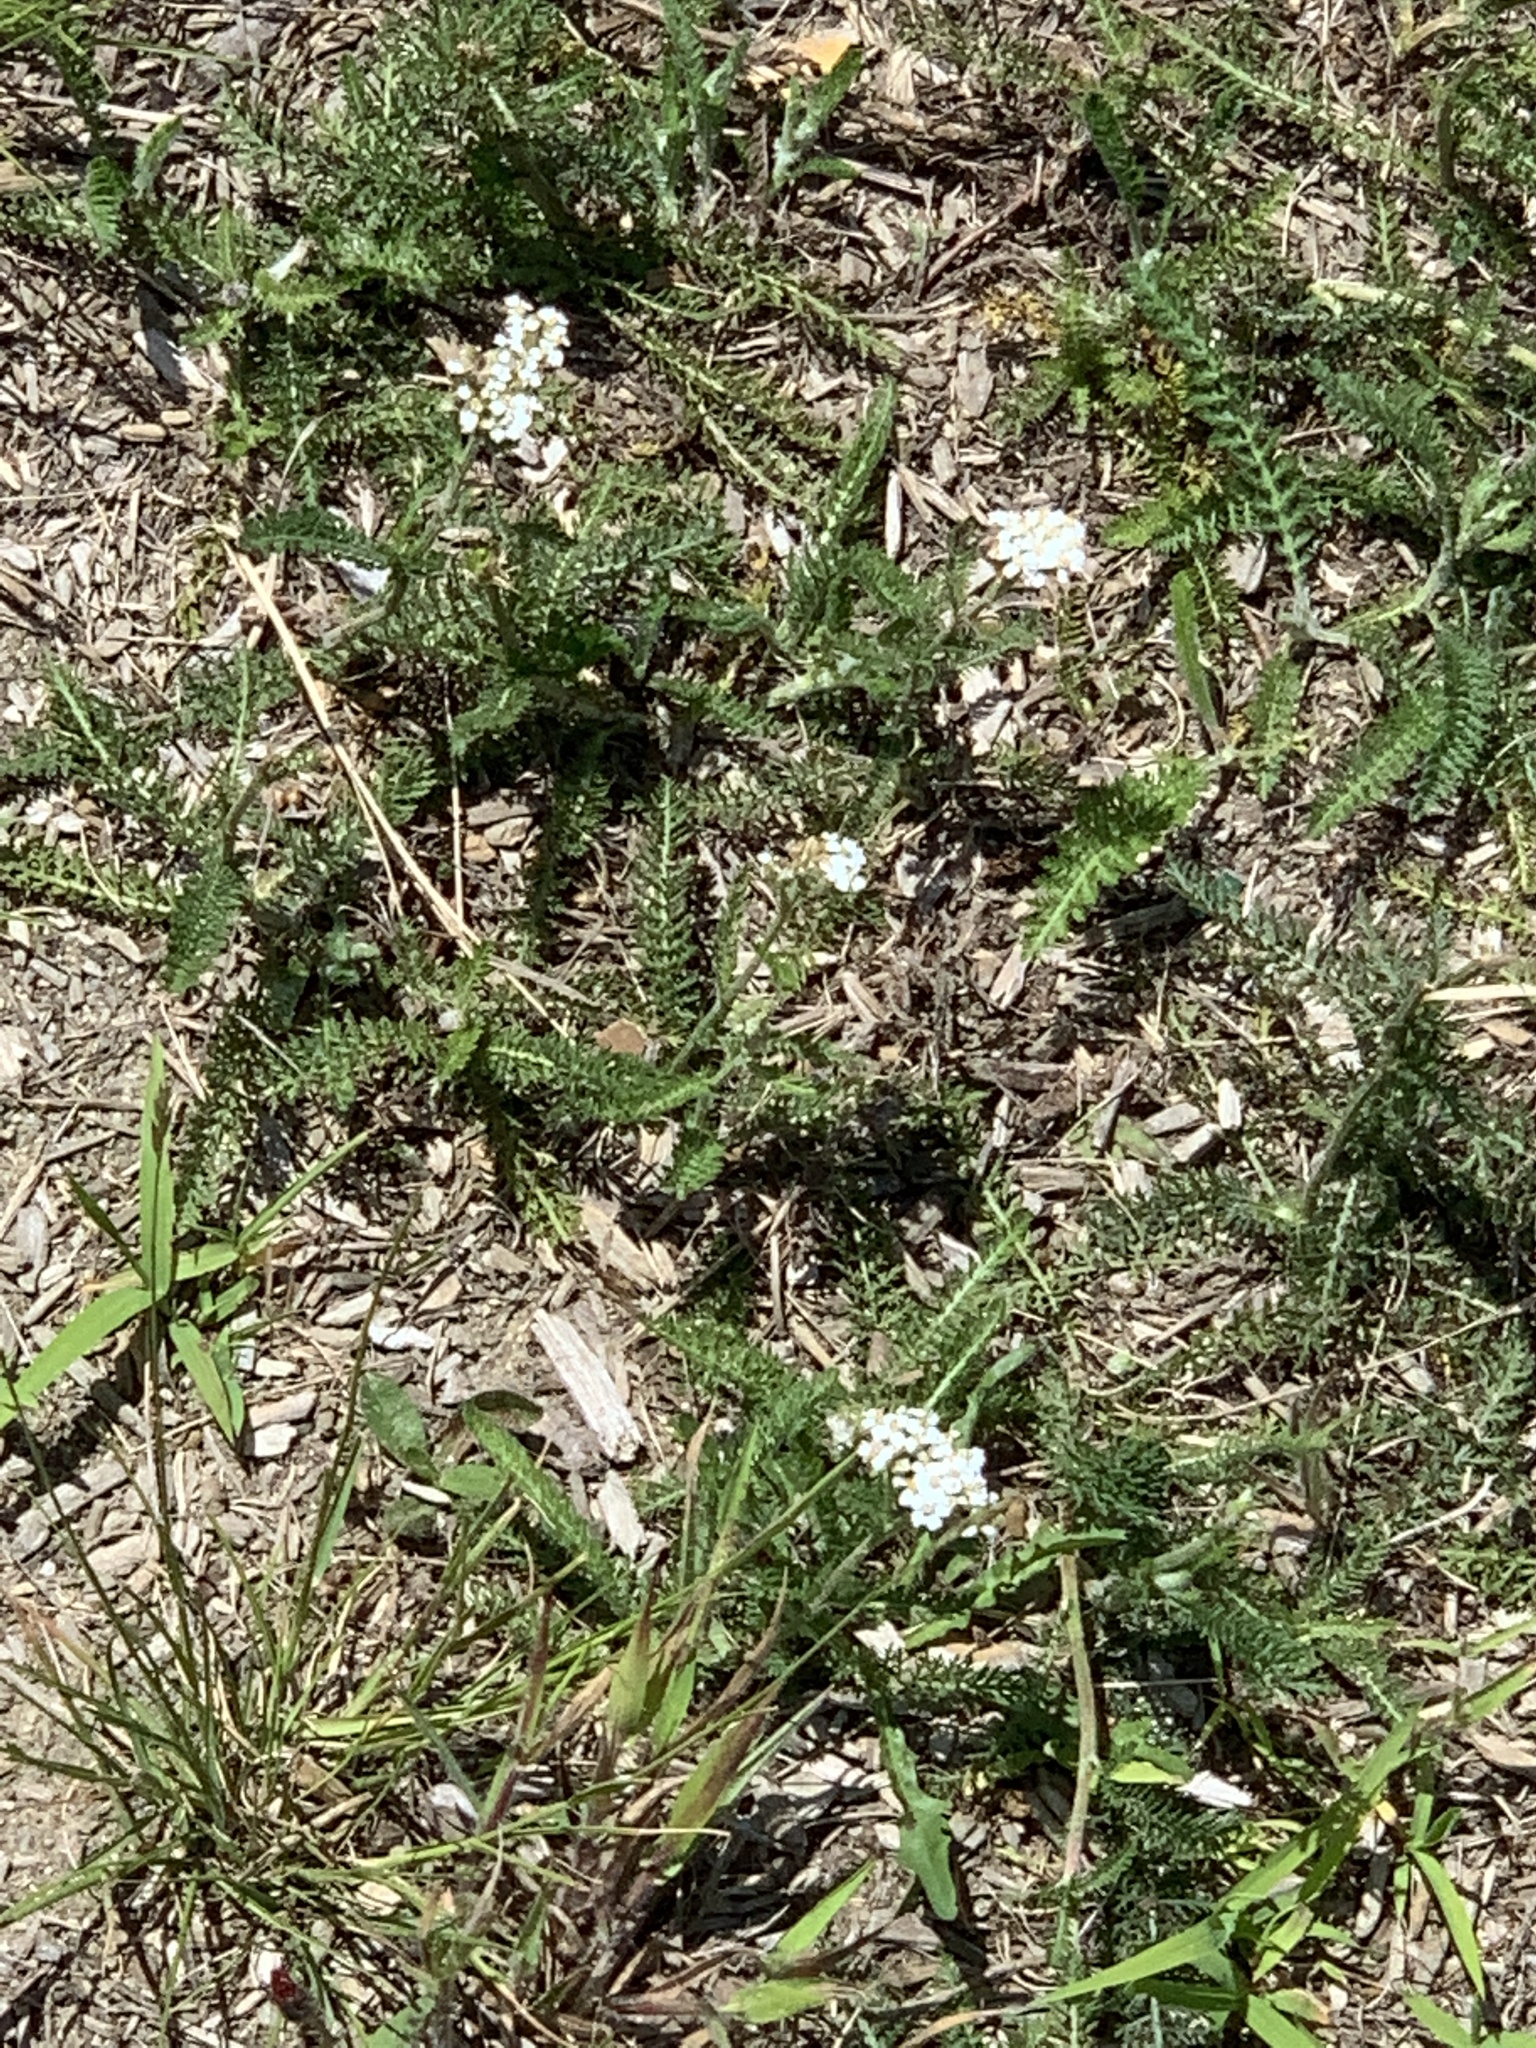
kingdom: Plantae
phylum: Tracheophyta
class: Magnoliopsida
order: Asterales
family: Asteraceae
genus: Achillea
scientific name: Achillea millefolium
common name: Yarrow
